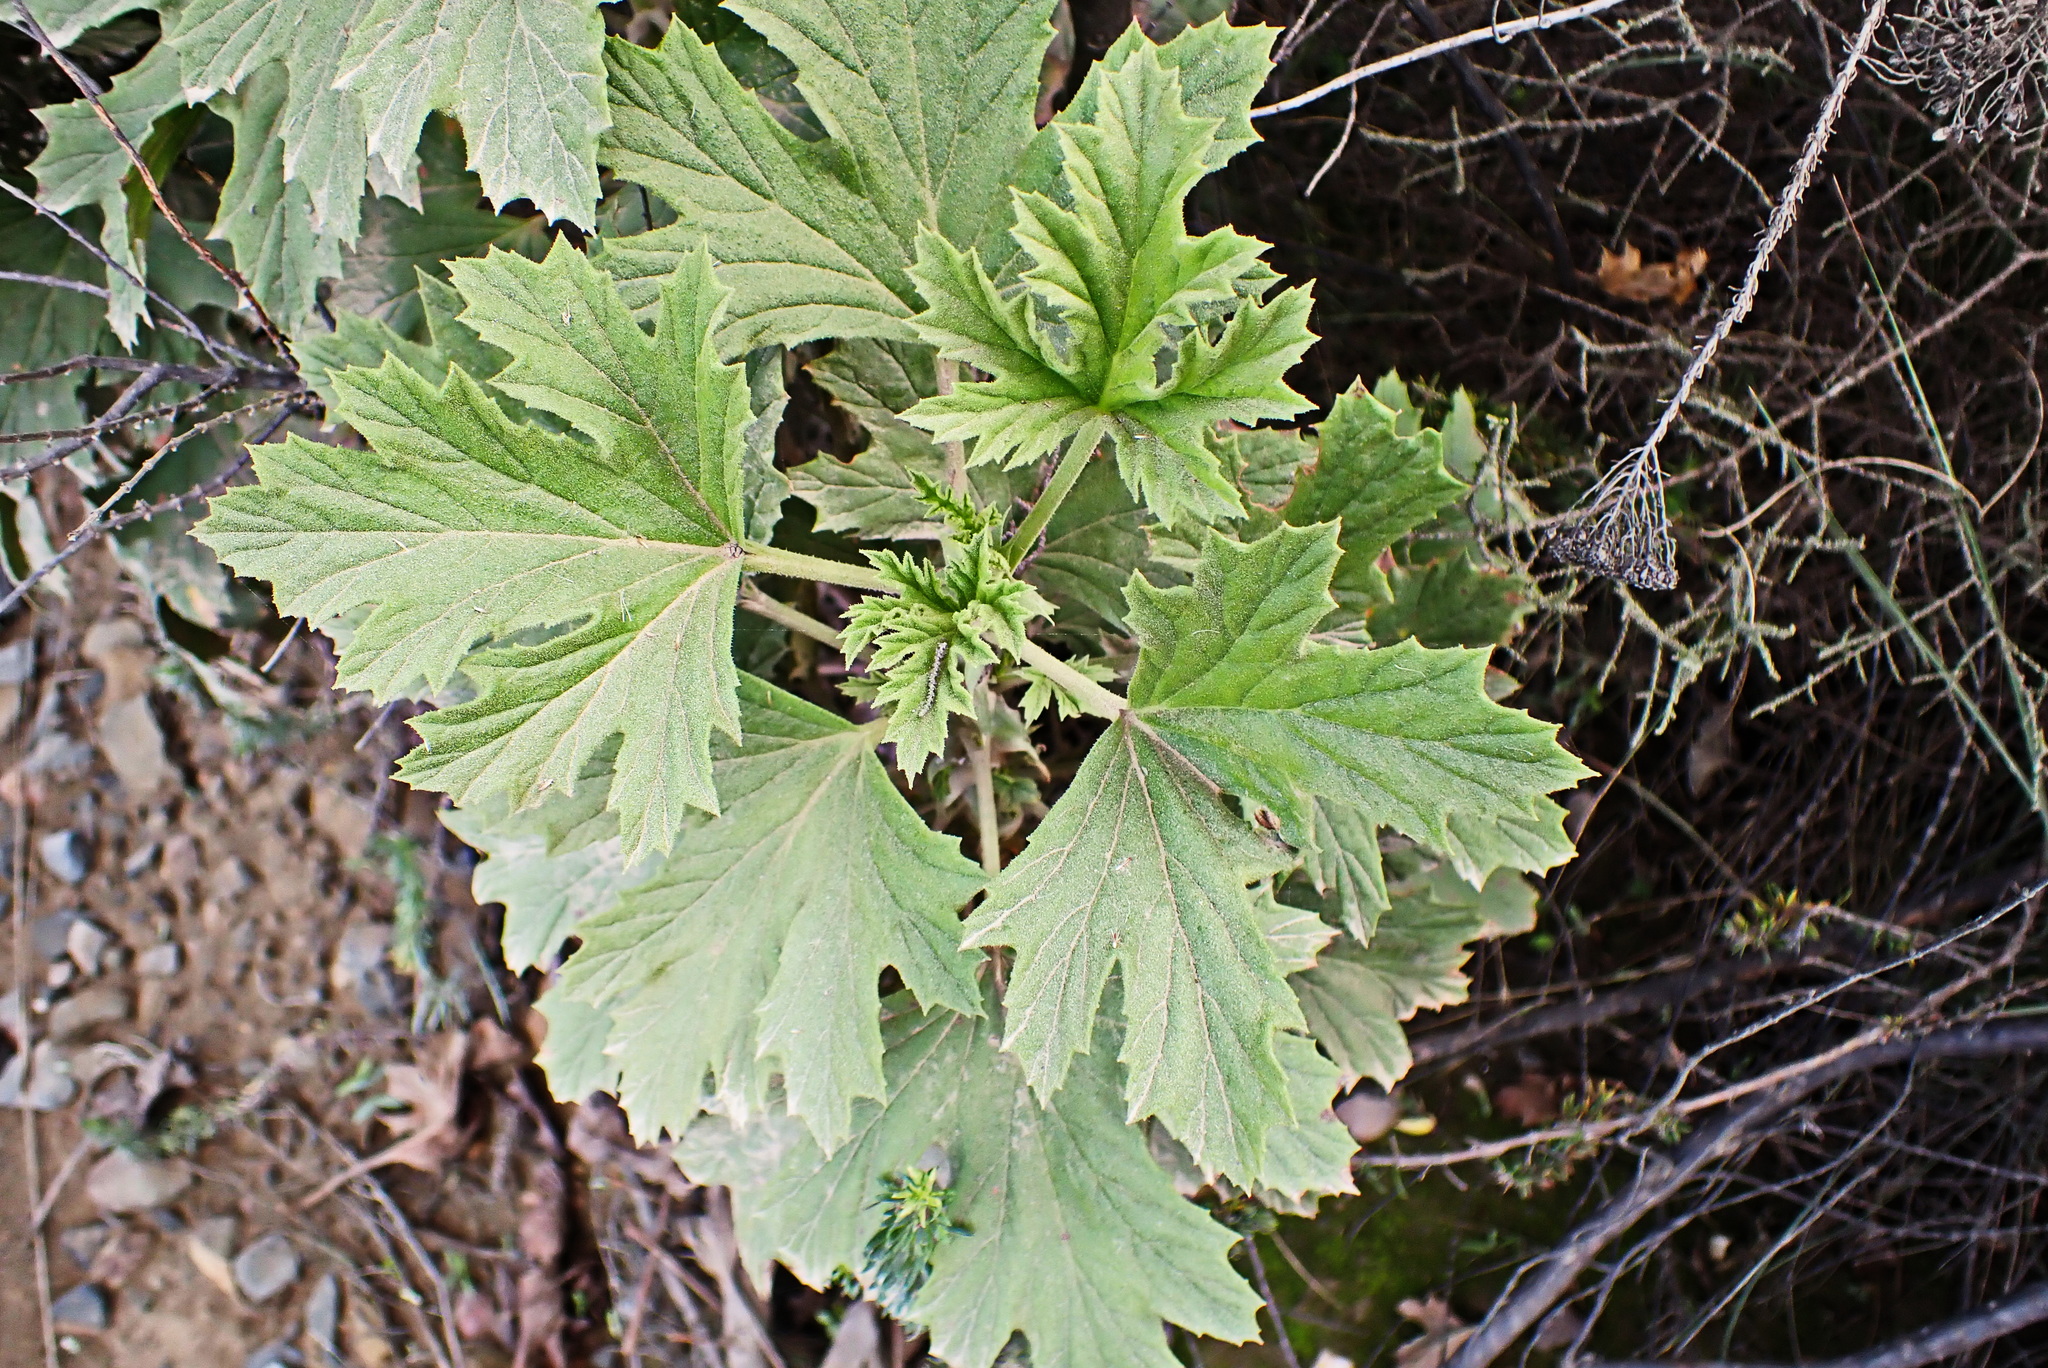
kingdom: Plantae
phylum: Tracheophyta
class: Magnoliopsida
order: Geraniales
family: Geraniaceae
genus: Pelargonium
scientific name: Pelargonium ribifolium
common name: Currant-leaf pelargonium
